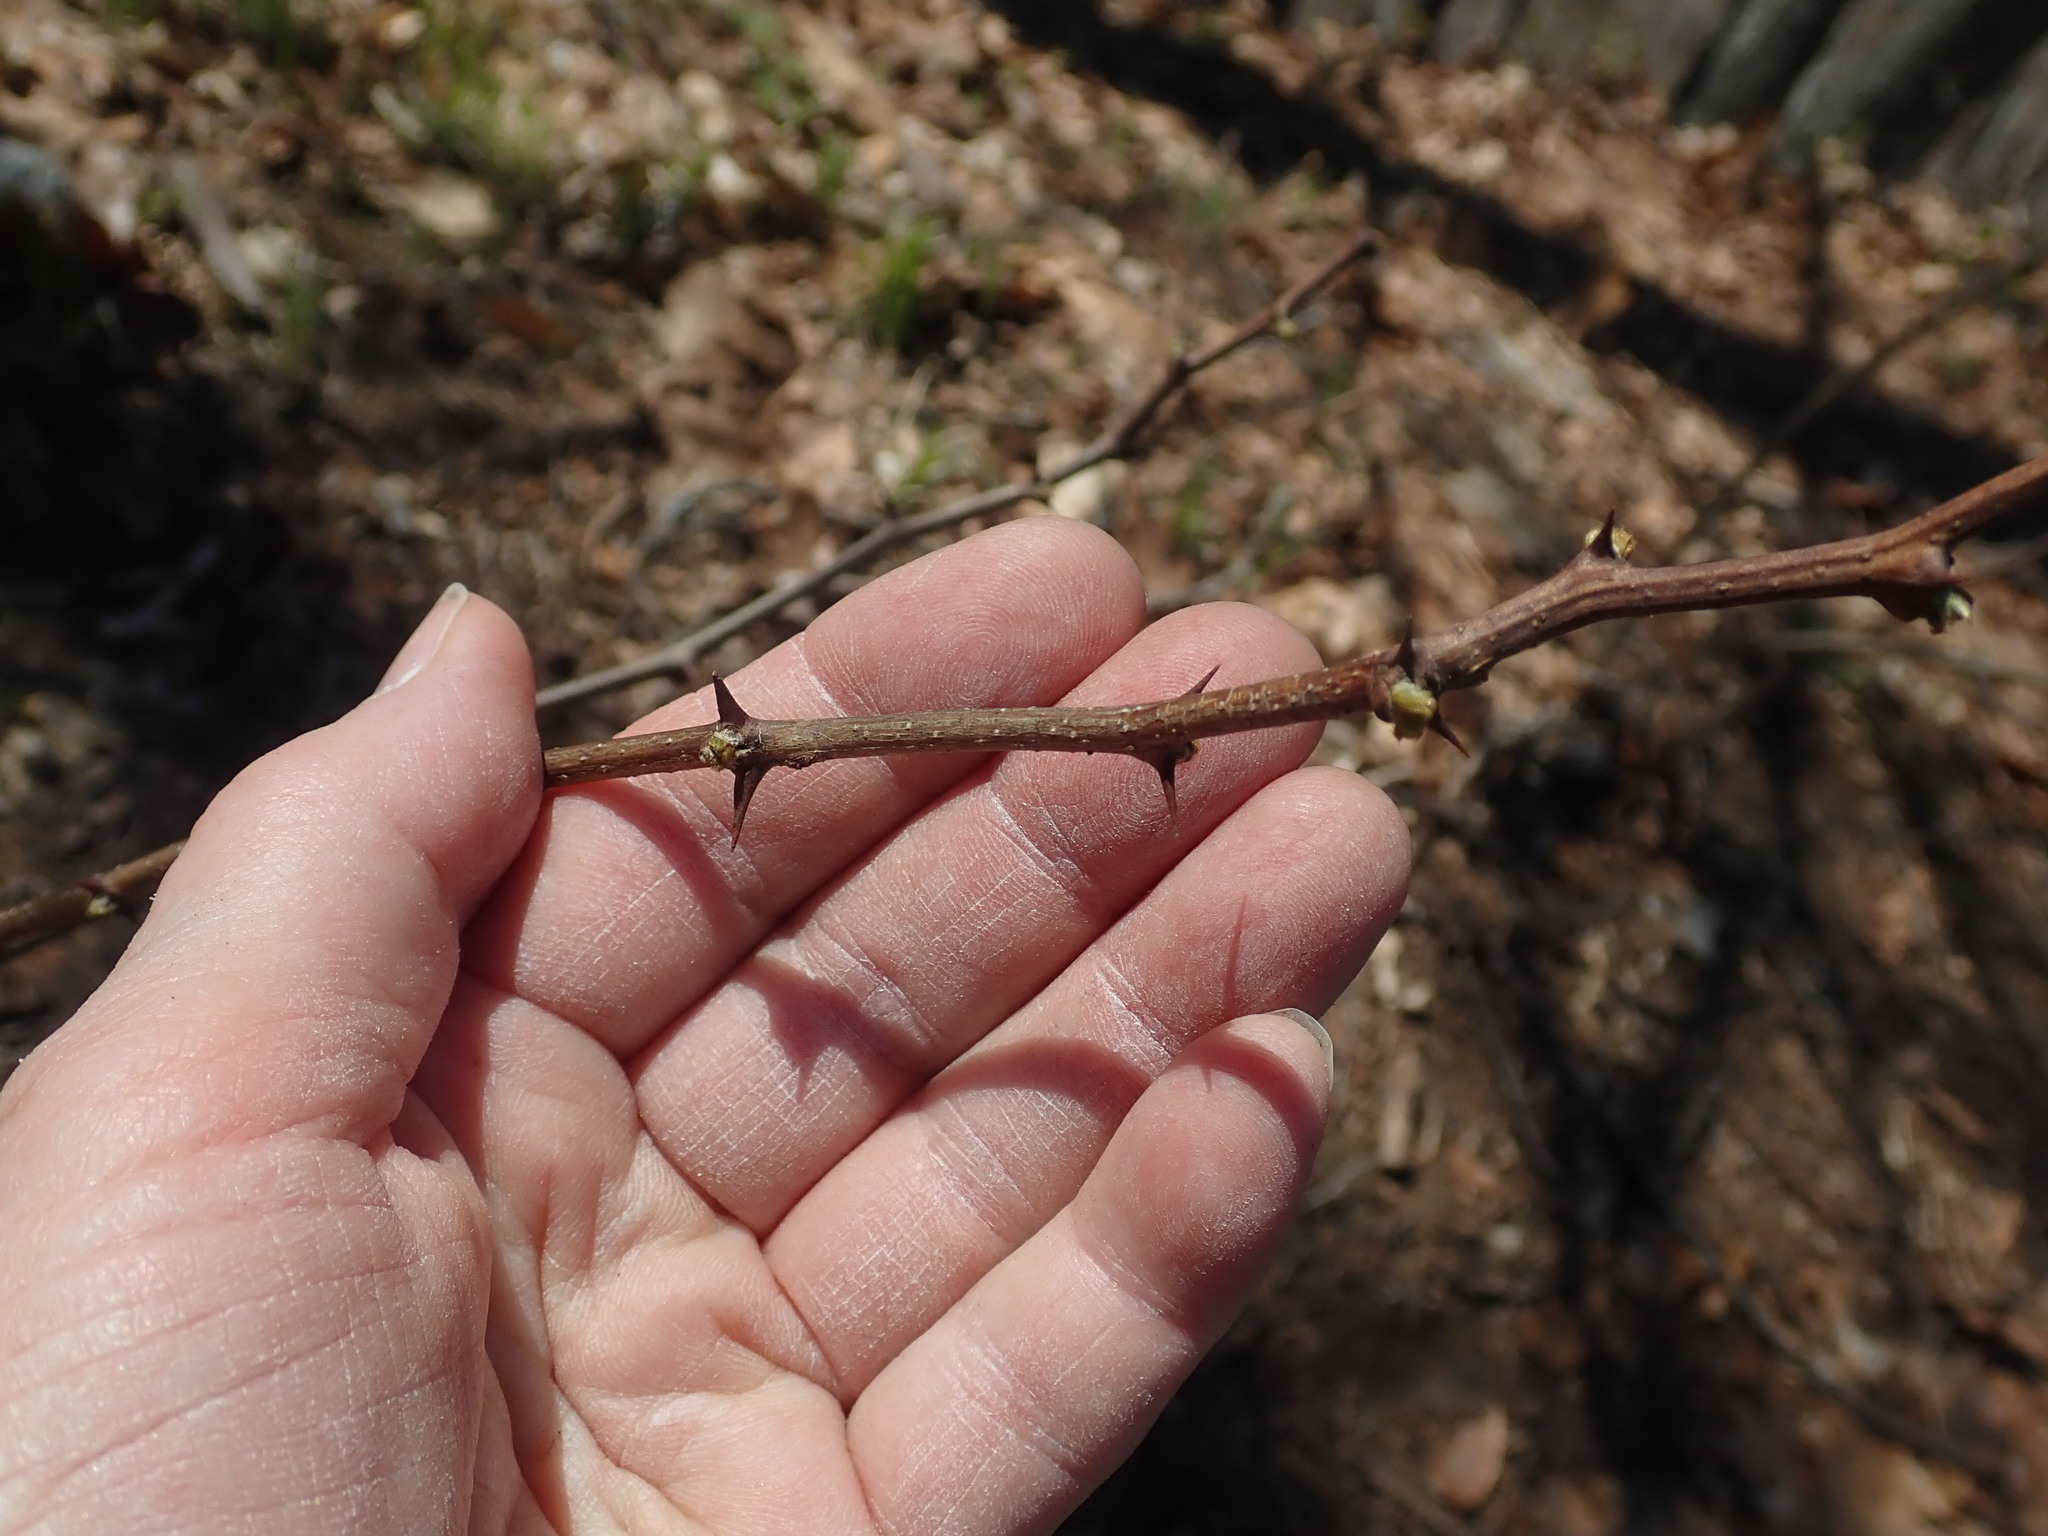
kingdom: Plantae
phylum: Tracheophyta
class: Magnoliopsida
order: Fabales
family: Fabaceae
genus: Robinia
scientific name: Robinia pseudoacacia
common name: Black locust
